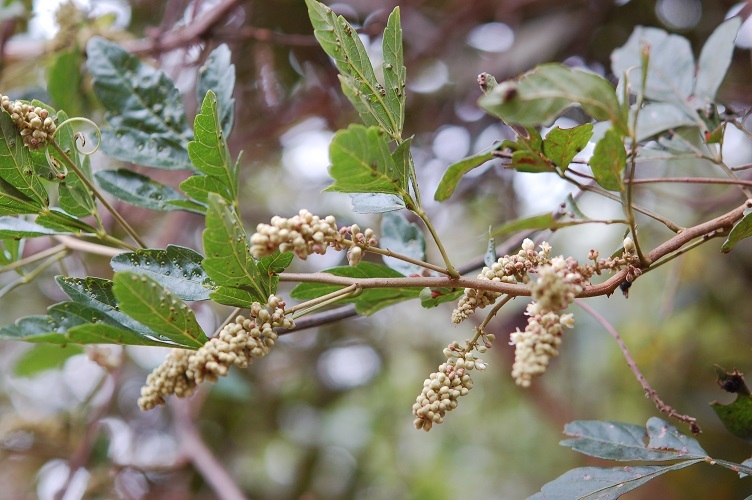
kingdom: Plantae
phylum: Tracheophyta
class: Magnoliopsida
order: Sapindales
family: Sapindaceae
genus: Paullinia
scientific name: Paullinia fuscescens
